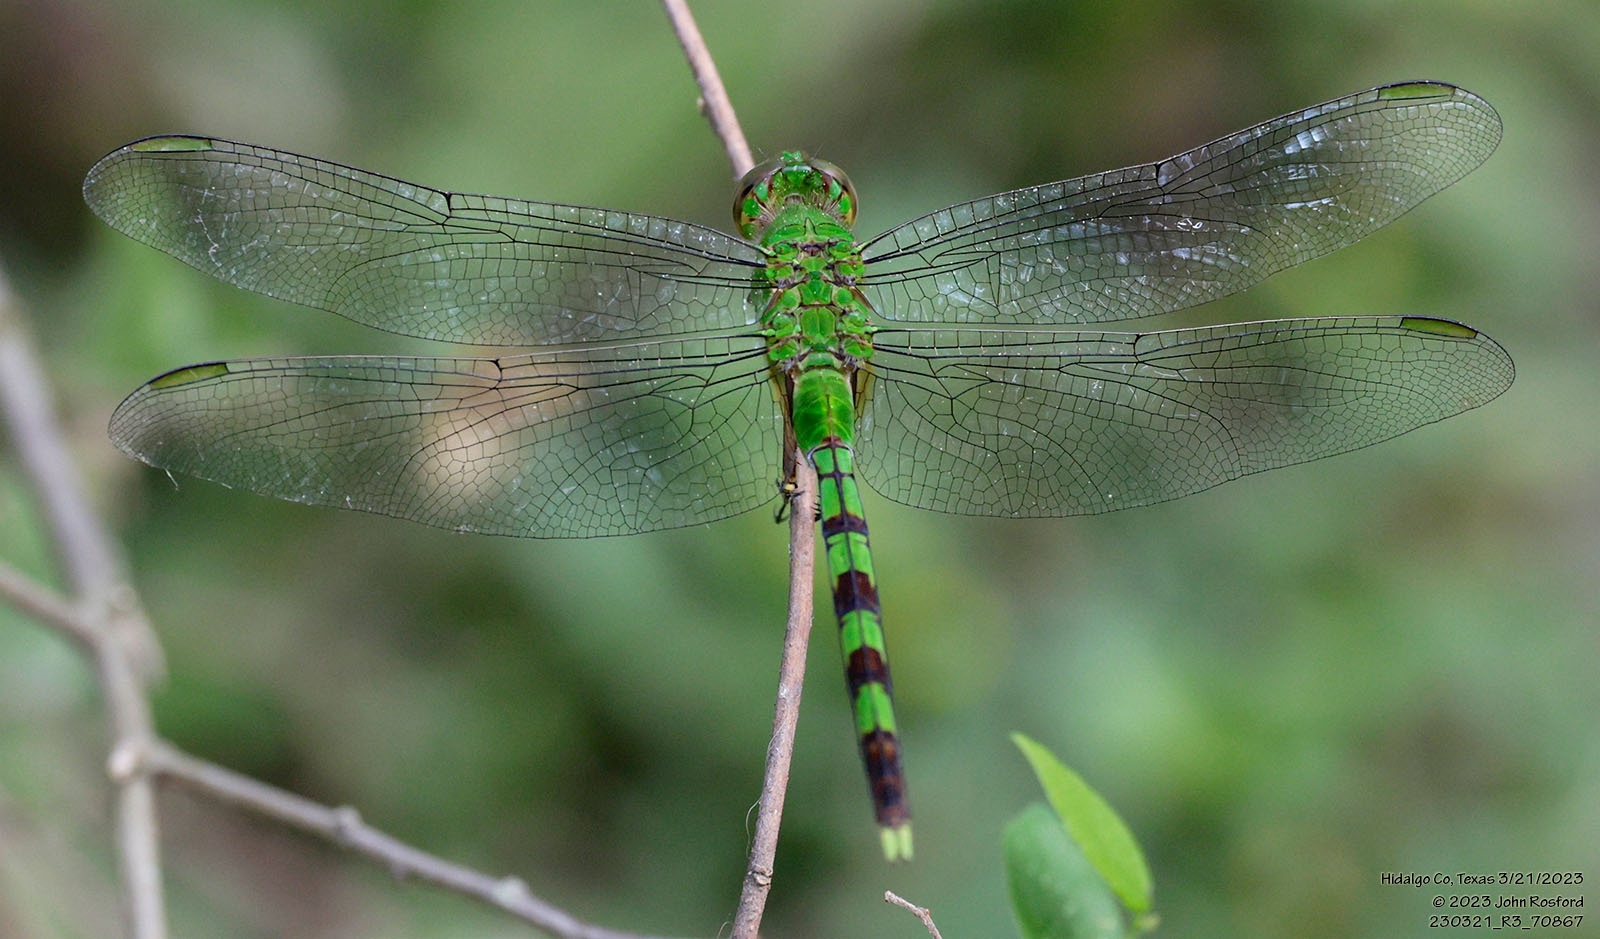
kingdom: Animalia
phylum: Arthropoda
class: Insecta
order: Odonata
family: Libellulidae
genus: Erythemis
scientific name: Erythemis vesiculosa
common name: Great pondhawk
